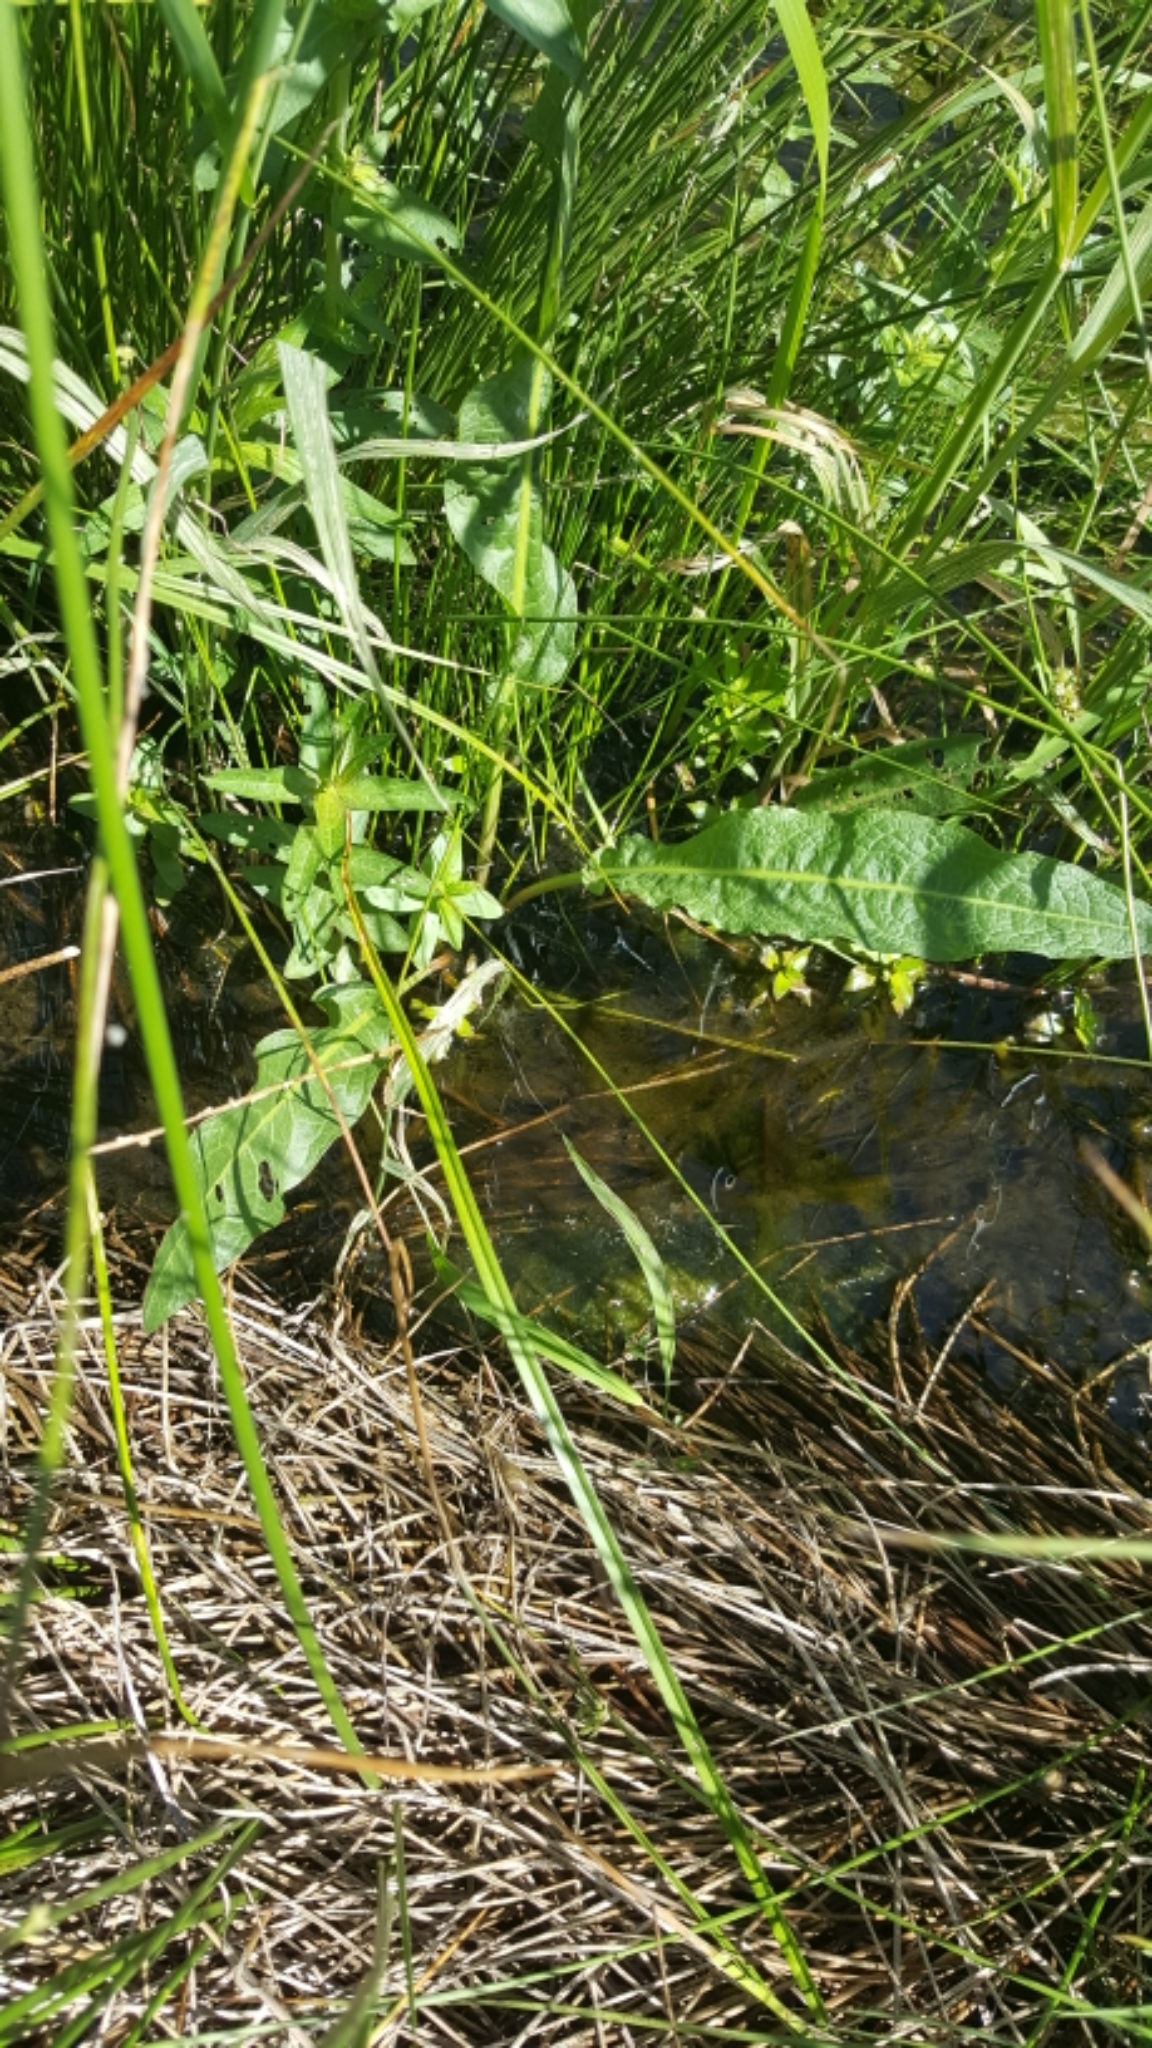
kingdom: Plantae
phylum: Tracheophyta
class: Magnoliopsida
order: Caryophyllales
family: Polygonaceae
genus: Rumex
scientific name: Rumex crispus
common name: Curled dock
